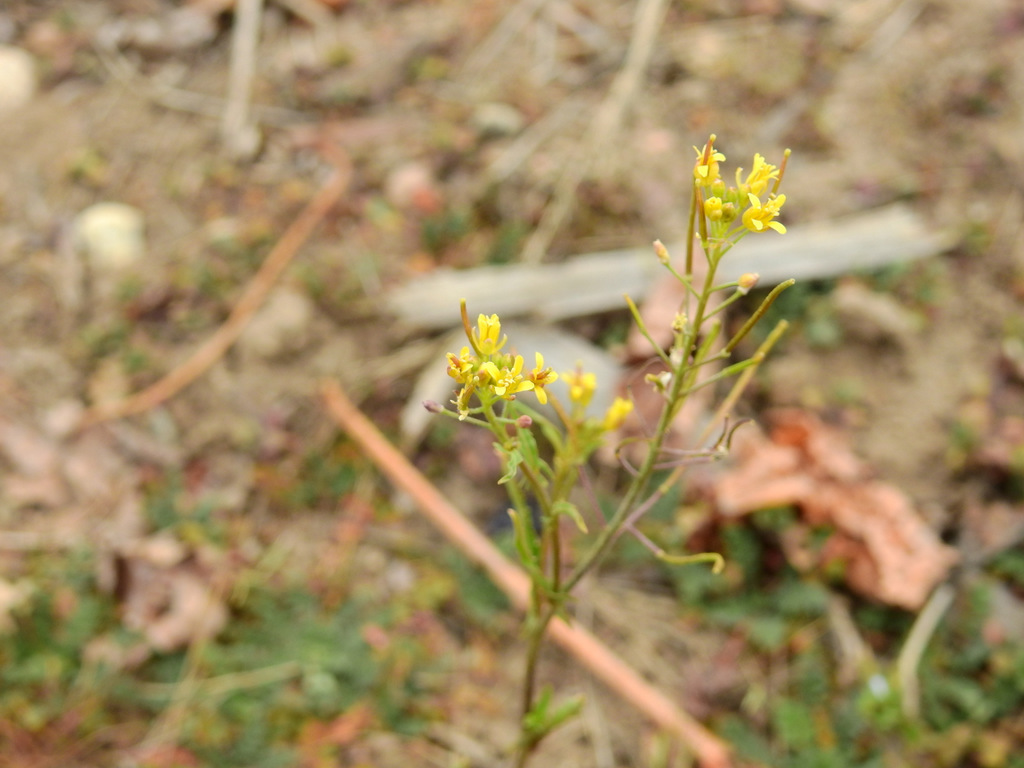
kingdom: Plantae
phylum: Tracheophyta
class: Magnoliopsida
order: Brassicales
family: Brassicaceae
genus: Sisymbrium
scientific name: Sisymbrium irio
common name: London rocket
